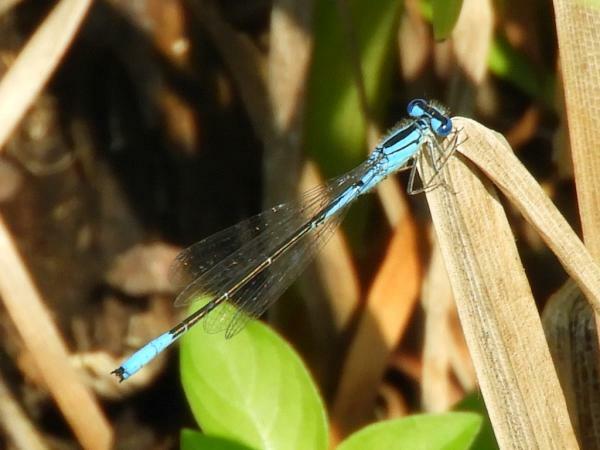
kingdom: Animalia
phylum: Arthropoda
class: Insecta
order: Odonata
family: Coenagrionidae
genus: Enallagma
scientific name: Enallagma aspersum
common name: Azure bluet
